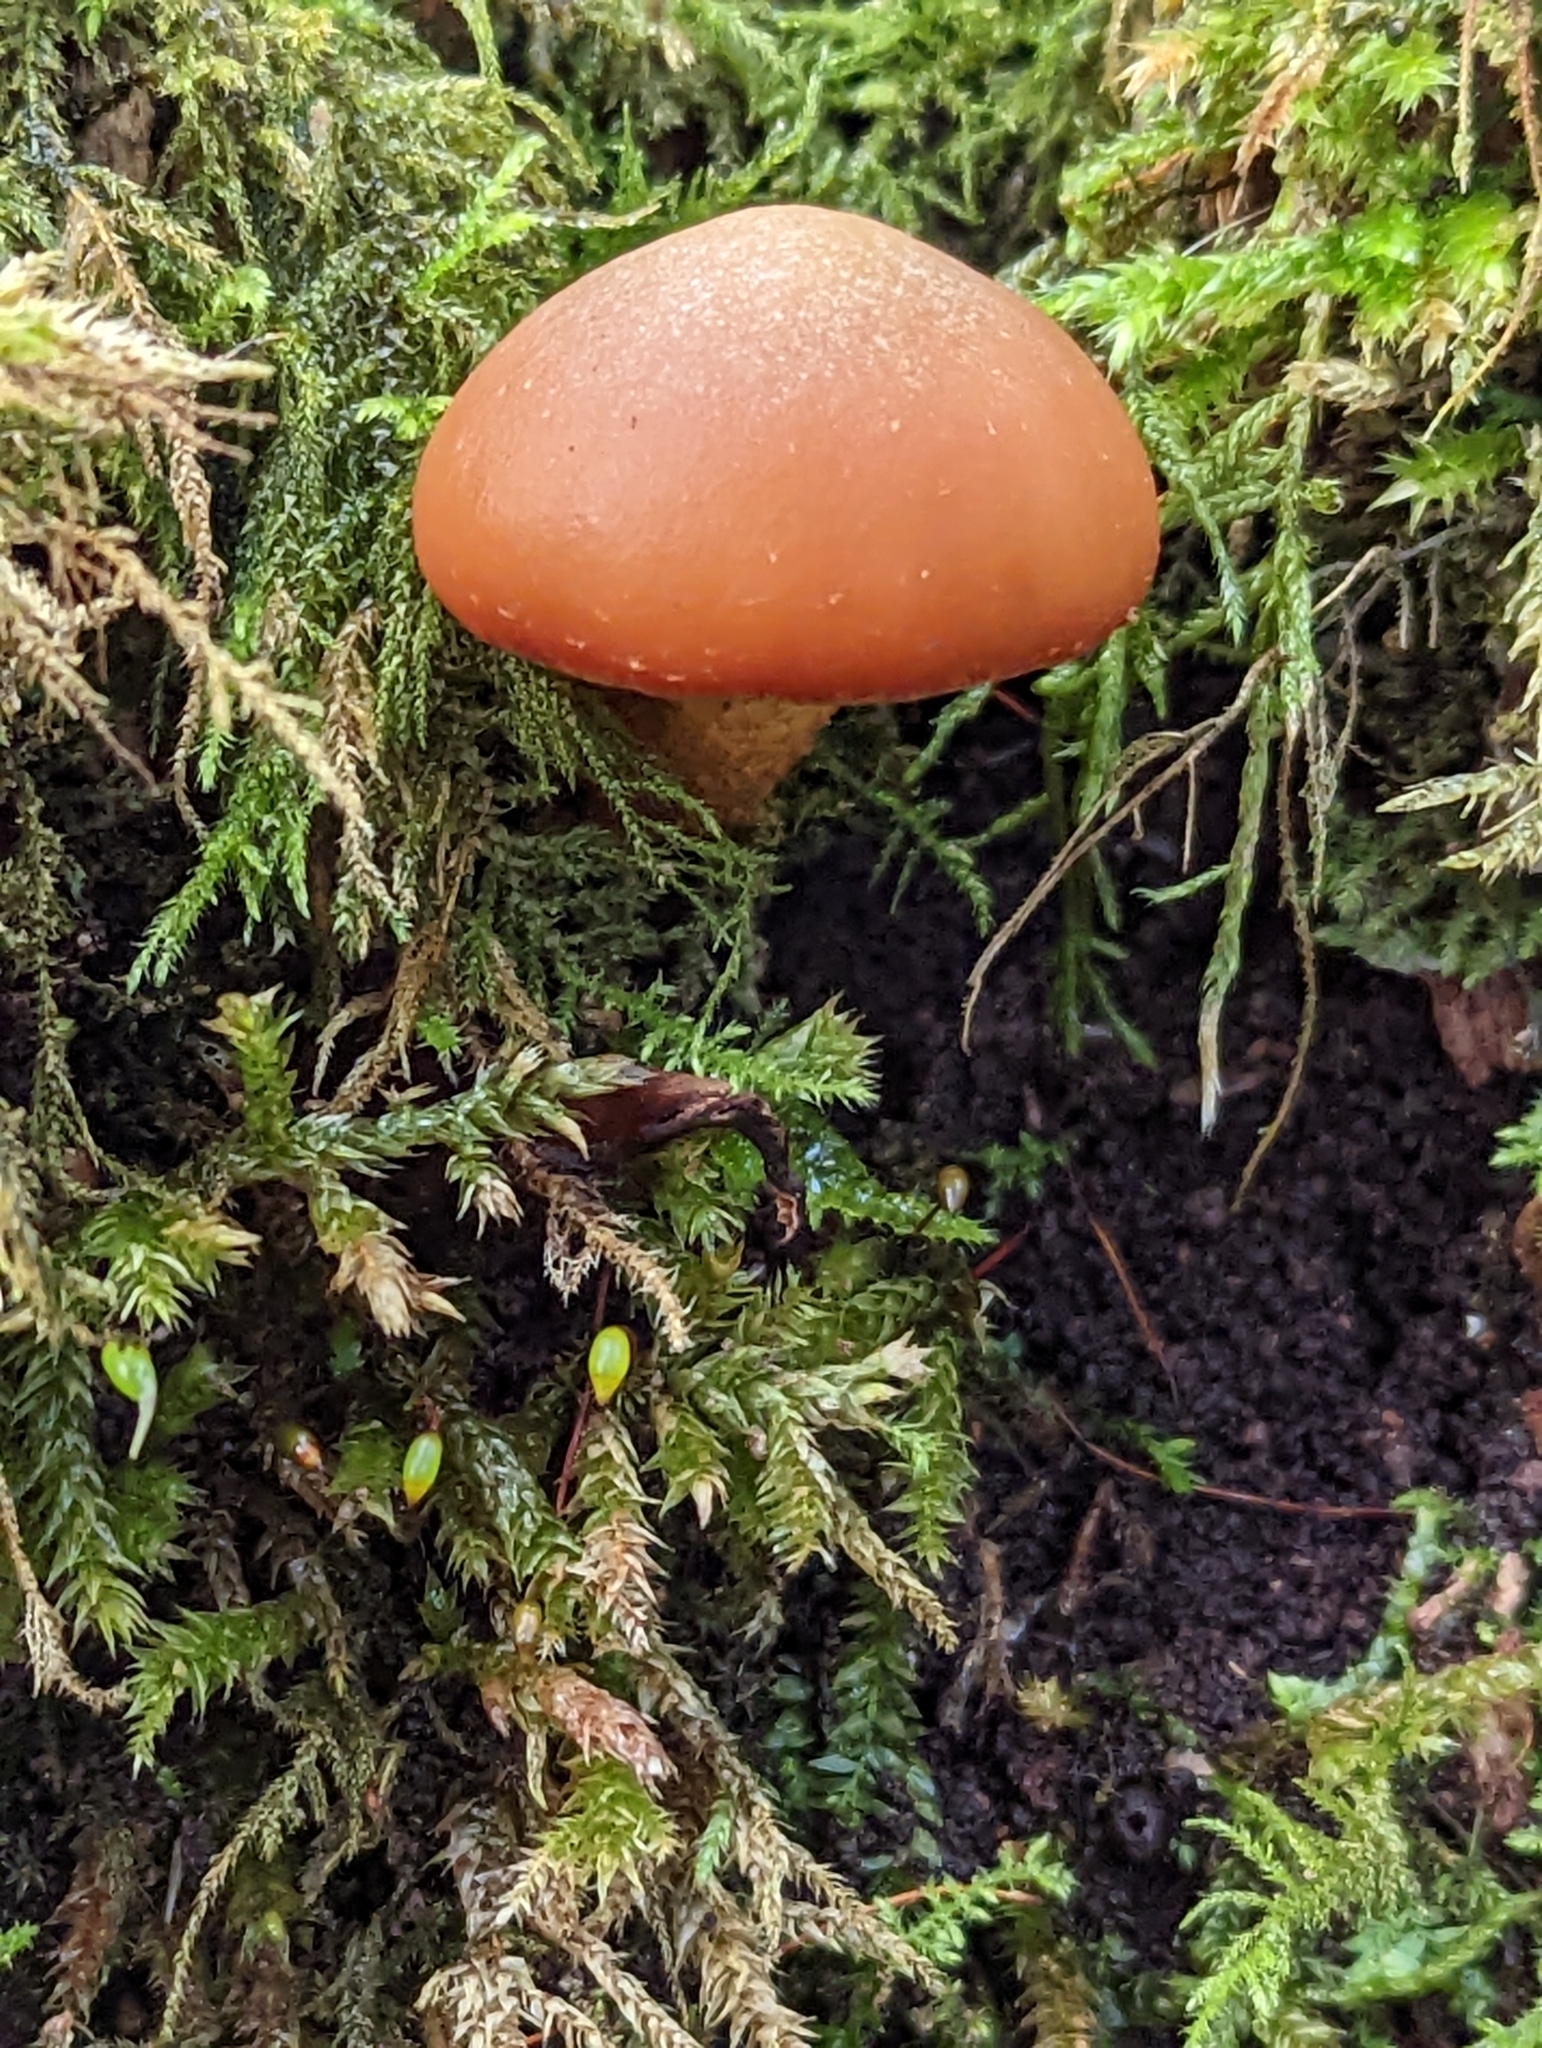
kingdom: Fungi
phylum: Basidiomycota
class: Agaricomycetes
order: Agaricales
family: Strophariaceae
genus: Kuehneromyces
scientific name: Kuehneromyces mutabilis
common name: Sheathed woodtuft
